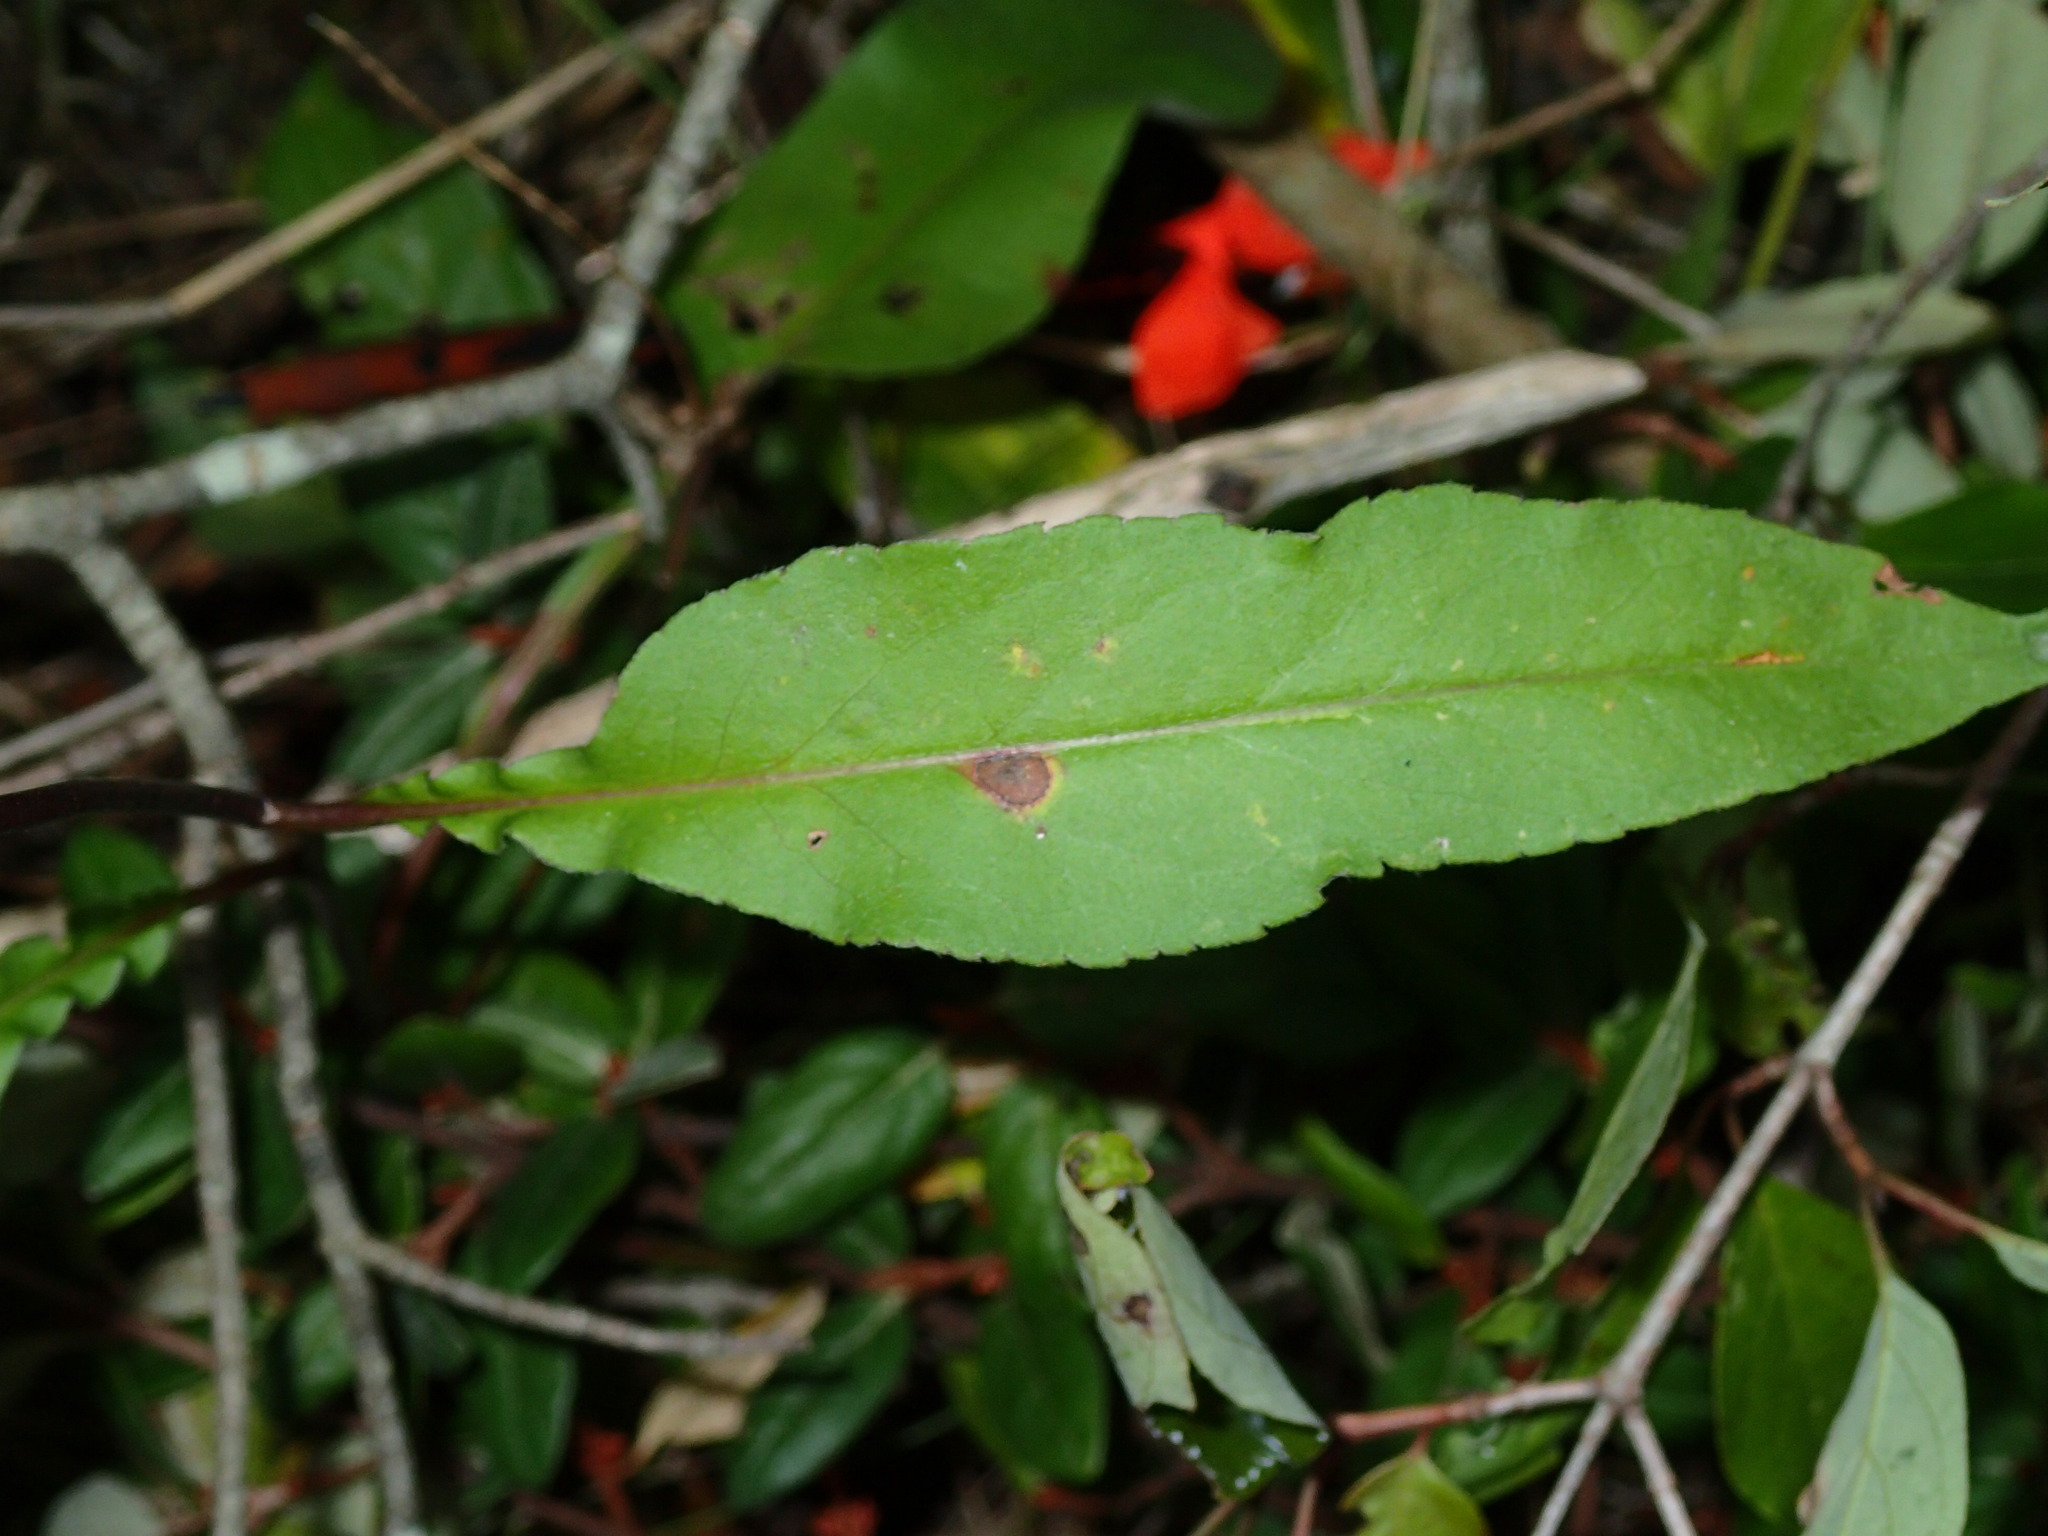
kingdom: Plantae
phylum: Tracheophyta
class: Magnoliopsida
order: Asterales
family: Asteraceae
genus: Symphyotrichum
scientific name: Symphyotrichum urophyllum
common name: Arrow-leaved aster
